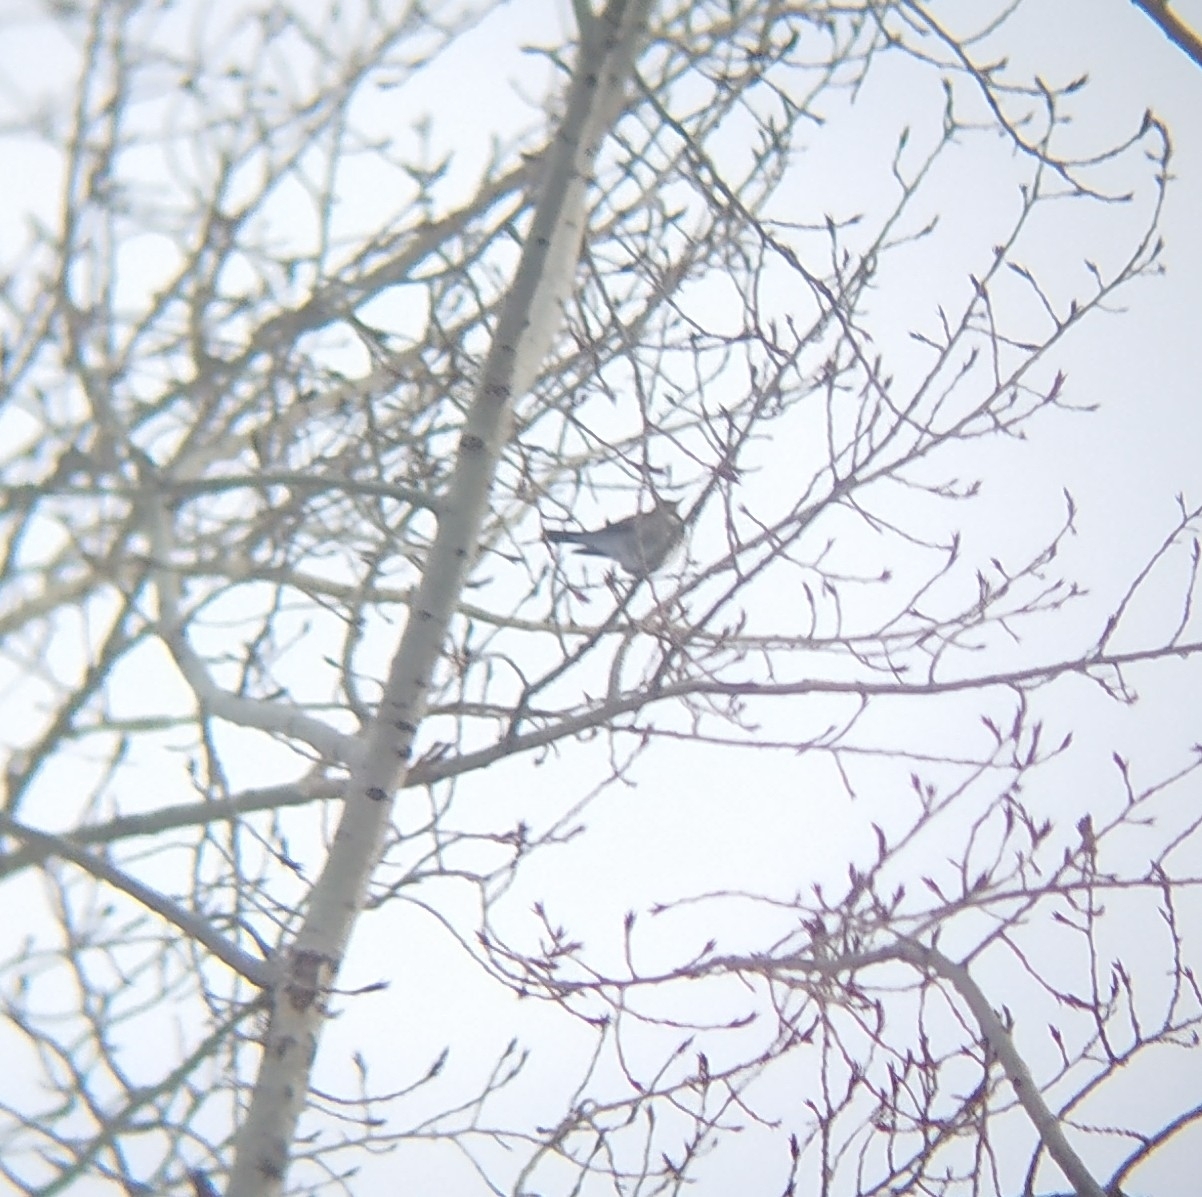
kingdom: Animalia
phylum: Chordata
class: Aves
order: Passeriformes
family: Turdidae
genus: Turdus
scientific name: Turdus pilaris
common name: Fieldfare
